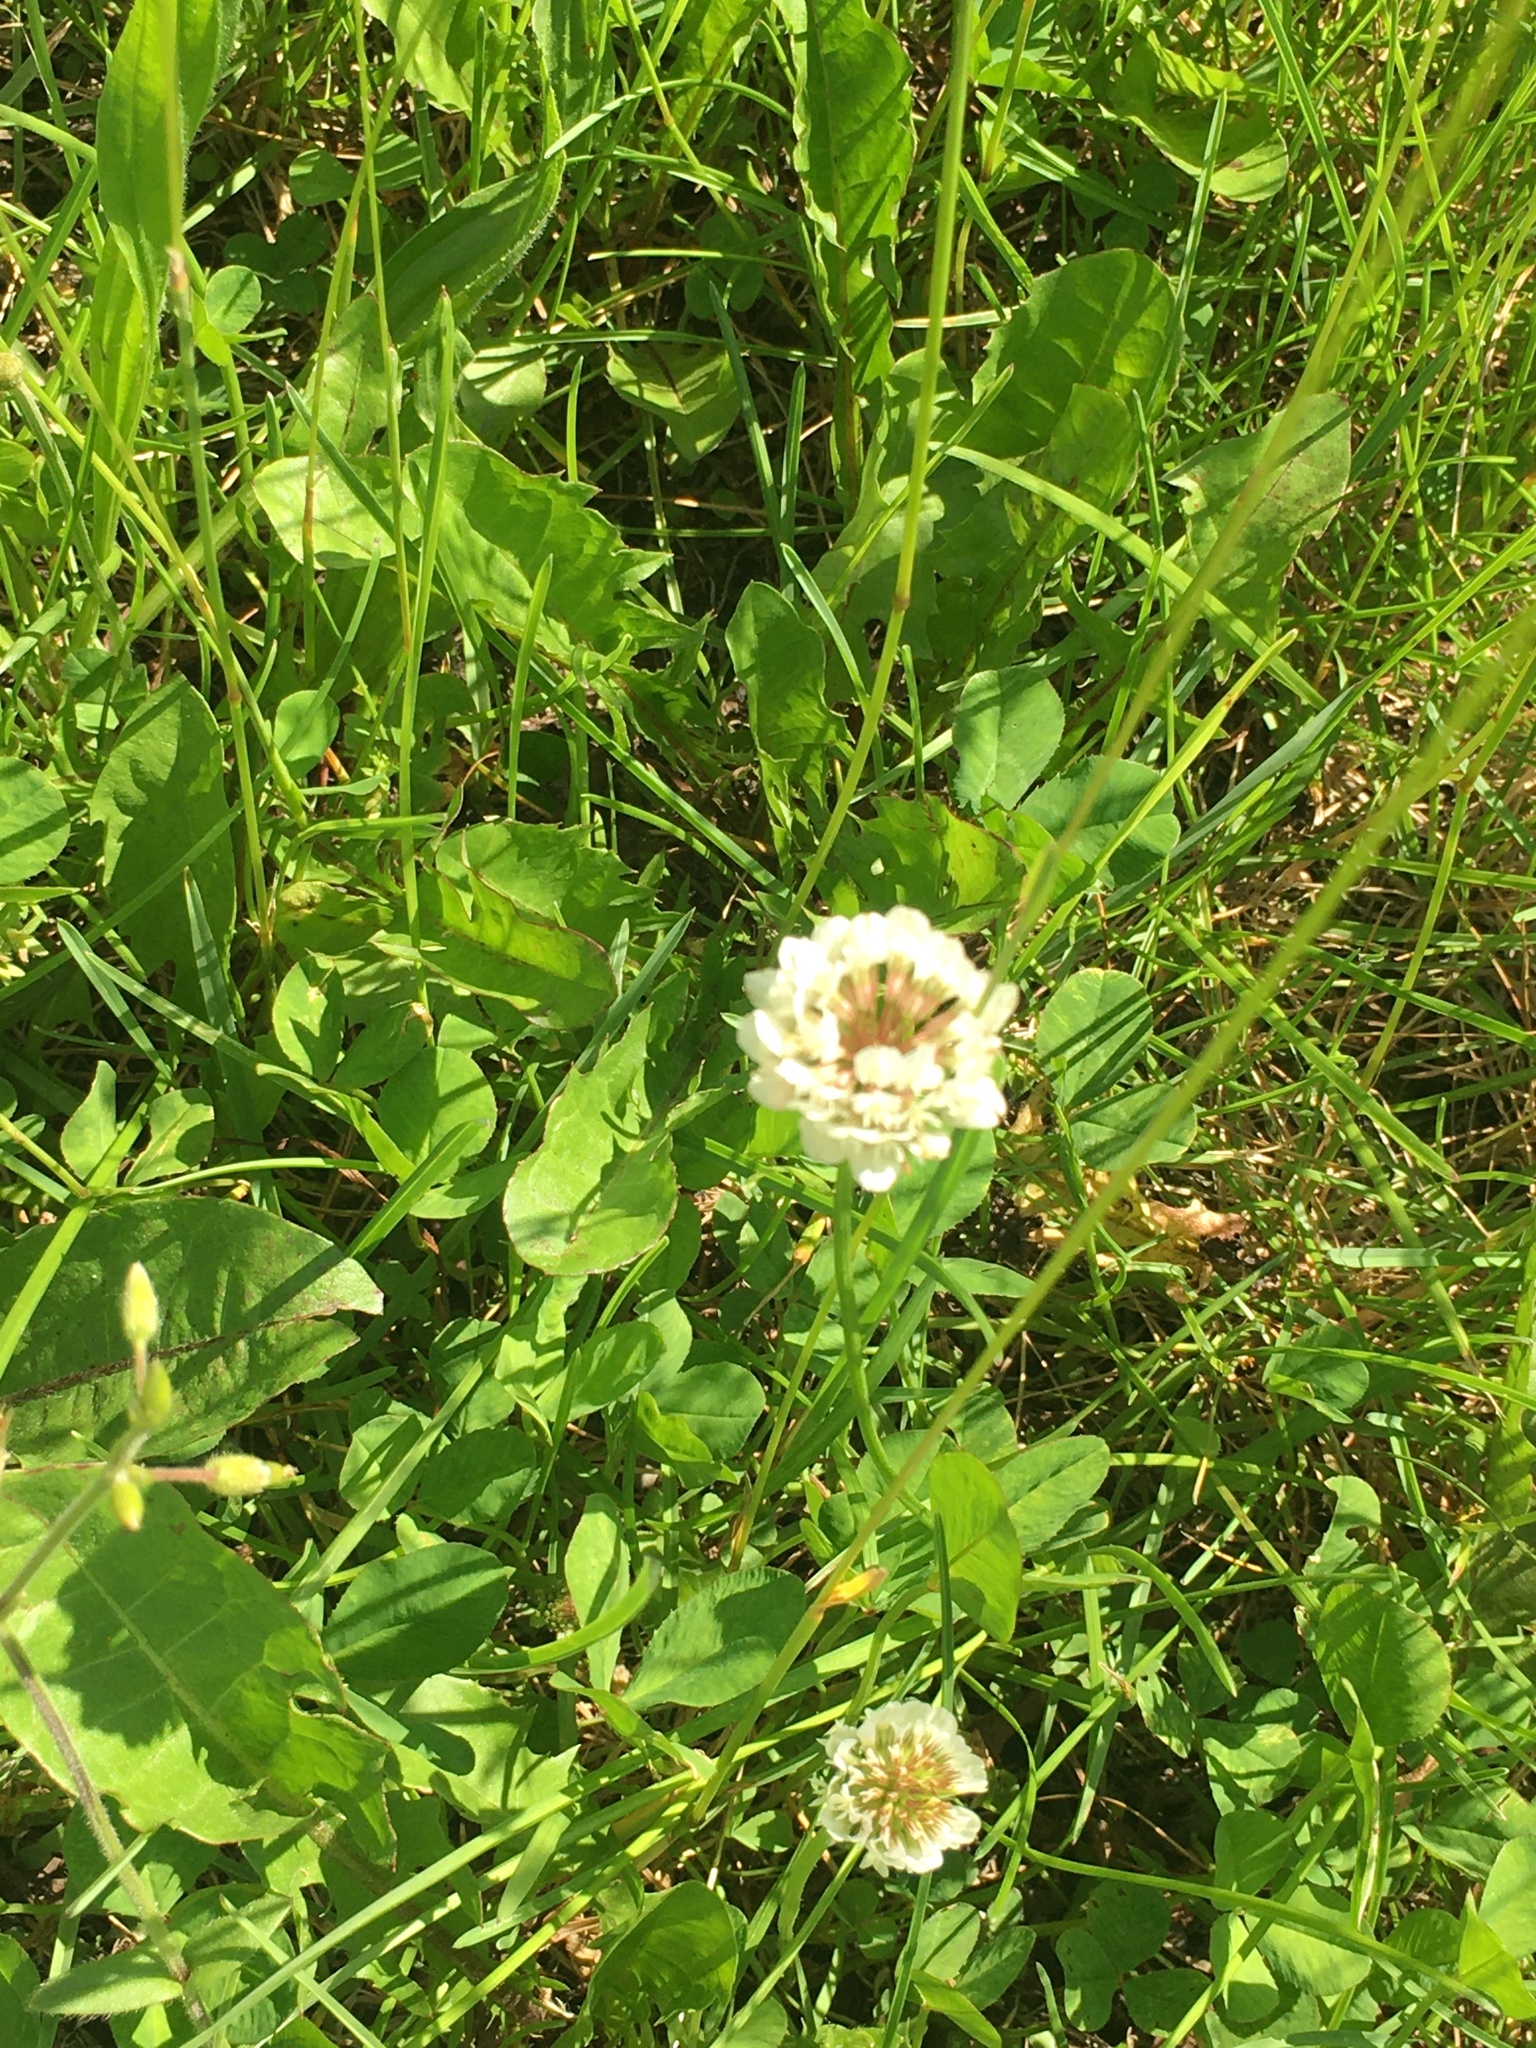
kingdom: Plantae
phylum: Tracheophyta
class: Magnoliopsida
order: Fabales
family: Fabaceae
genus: Trifolium
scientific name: Trifolium repens
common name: White clover
